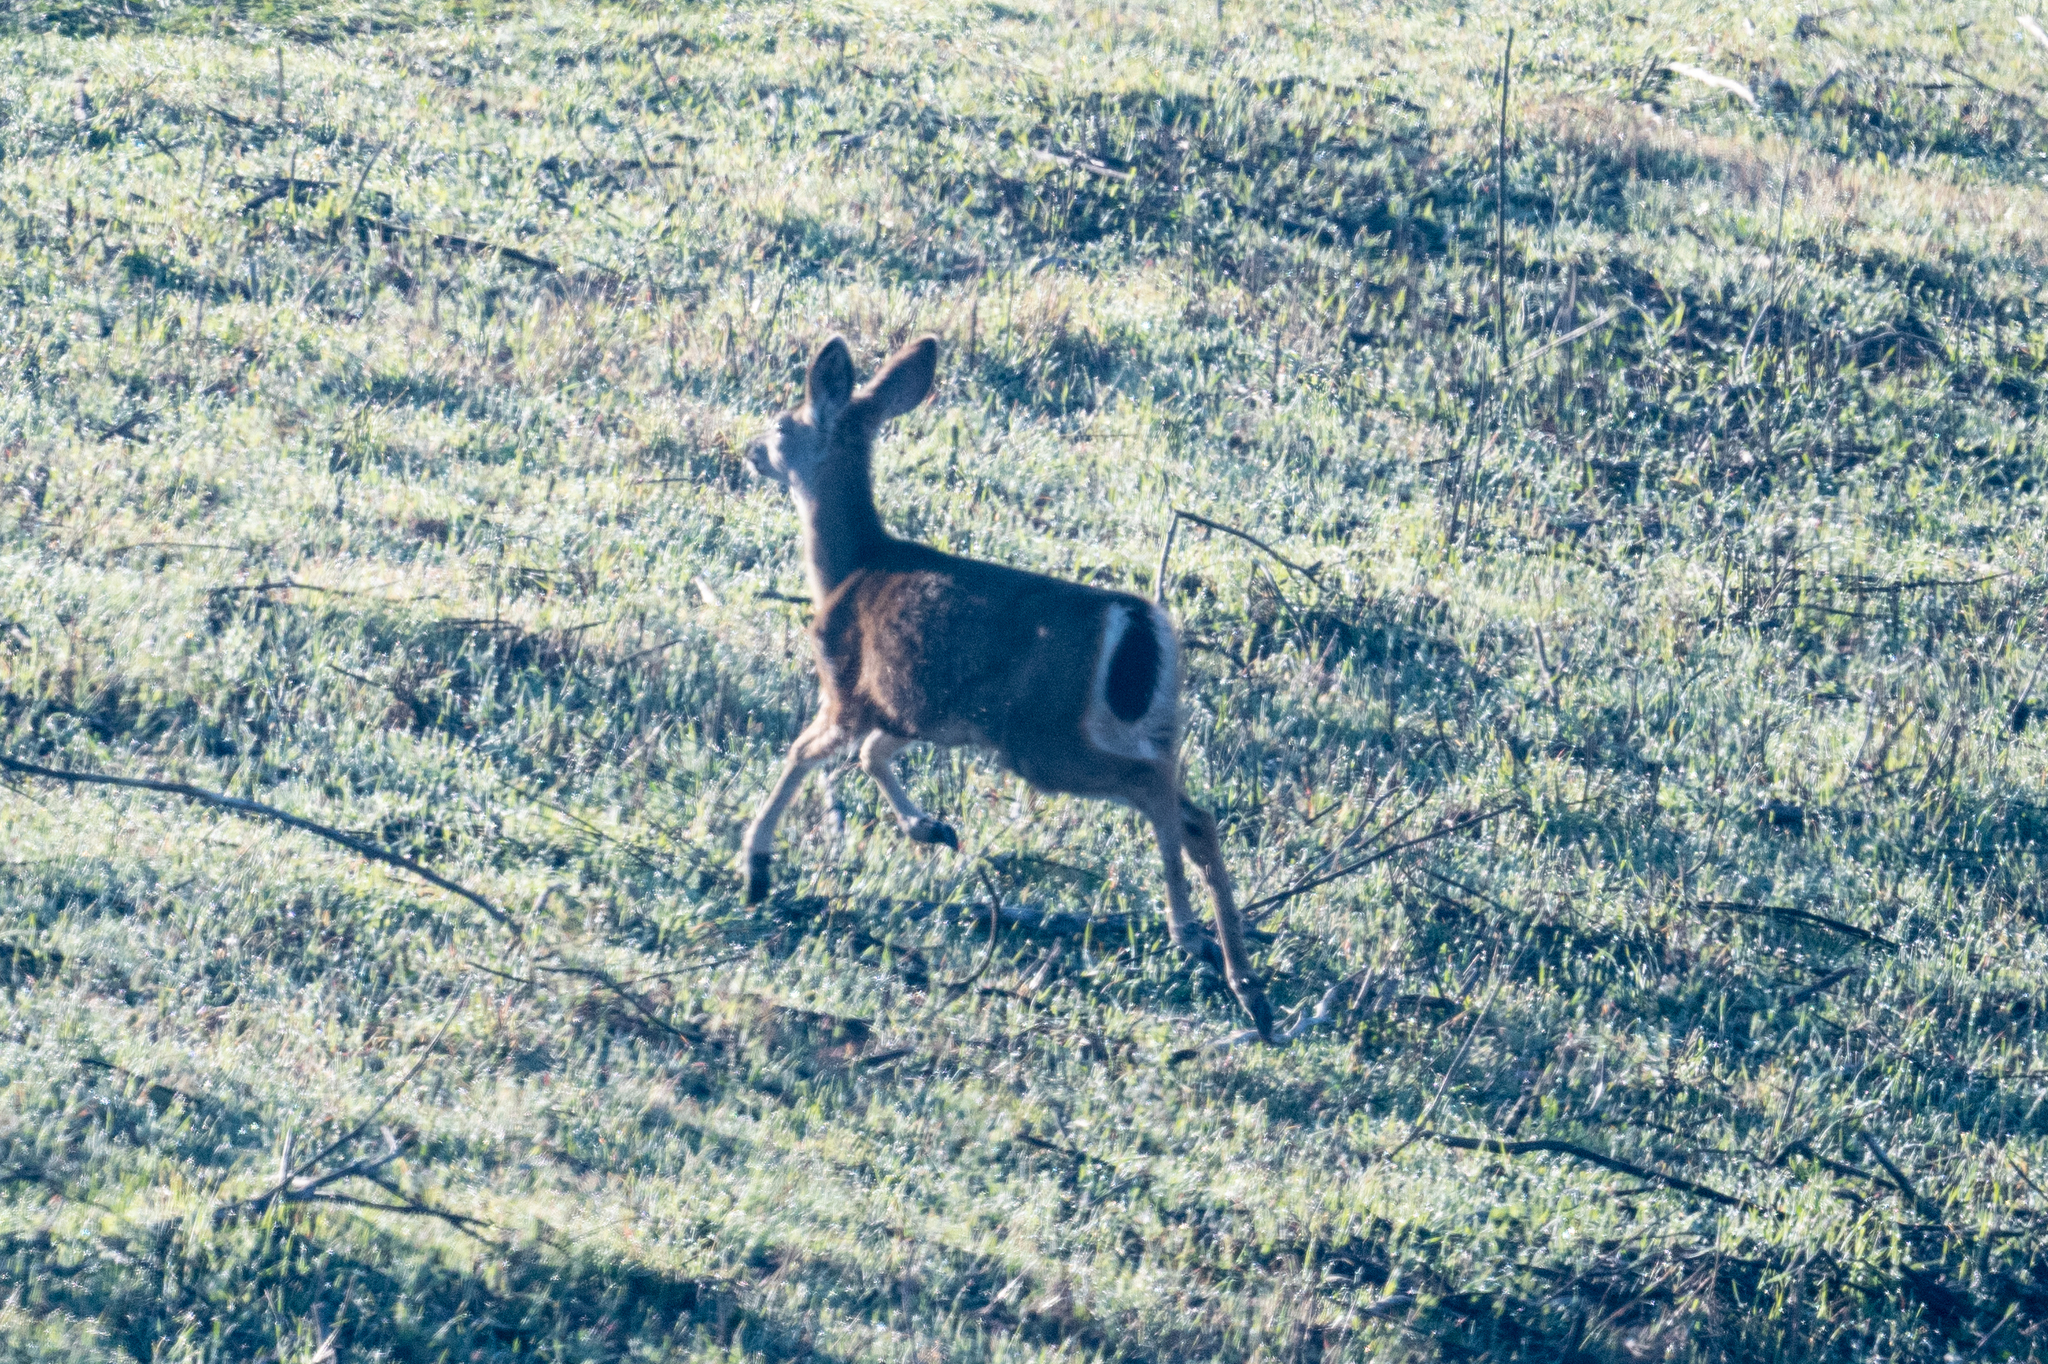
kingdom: Animalia
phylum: Chordata
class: Mammalia
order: Artiodactyla
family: Cervidae
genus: Odocoileus
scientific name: Odocoileus hemionus
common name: Mule deer
